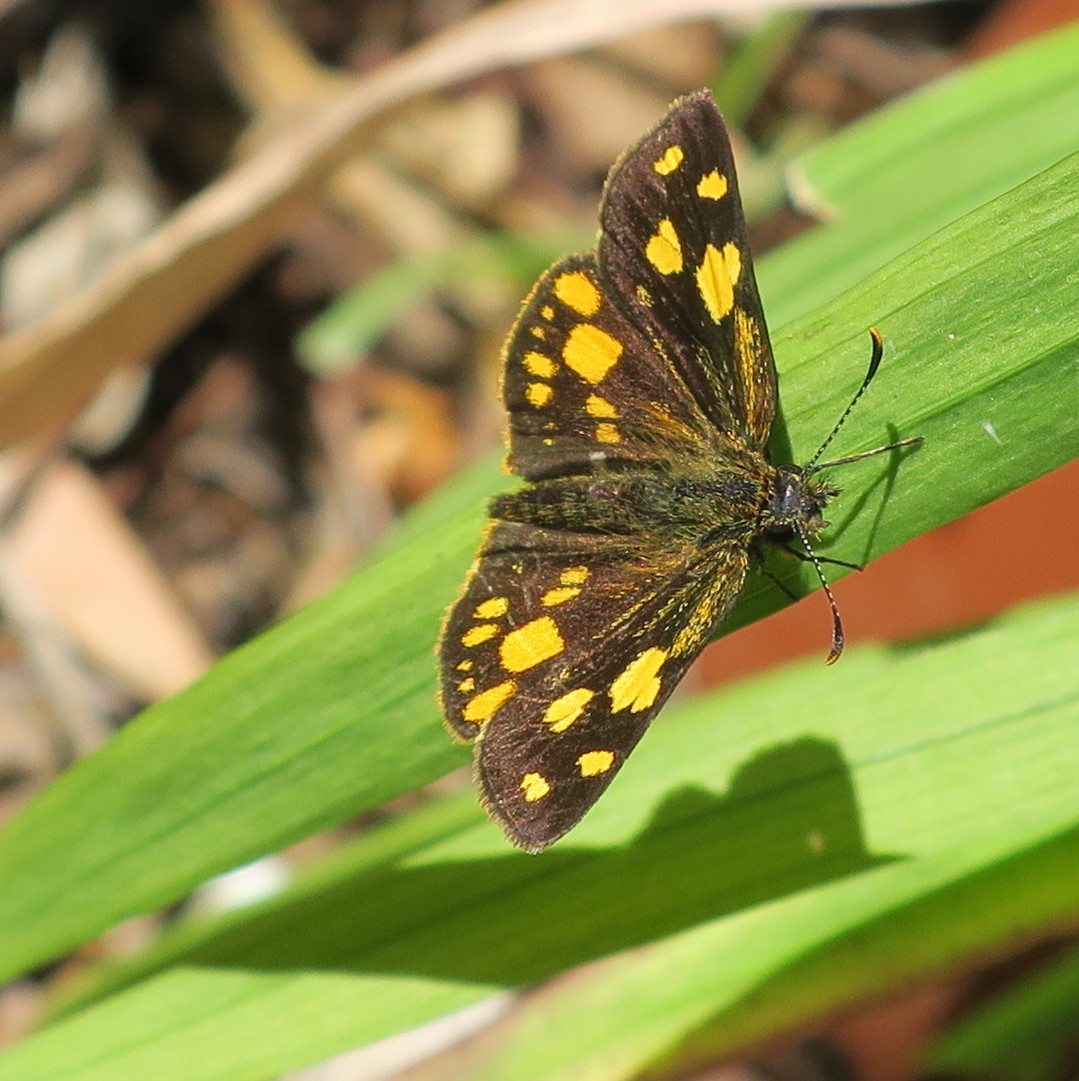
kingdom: Animalia
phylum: Arthropoda
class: Insecta
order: Lepidoptera
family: Hesperiidae
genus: Metisella
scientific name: Metisella metis
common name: Western gold-spotted sylph
